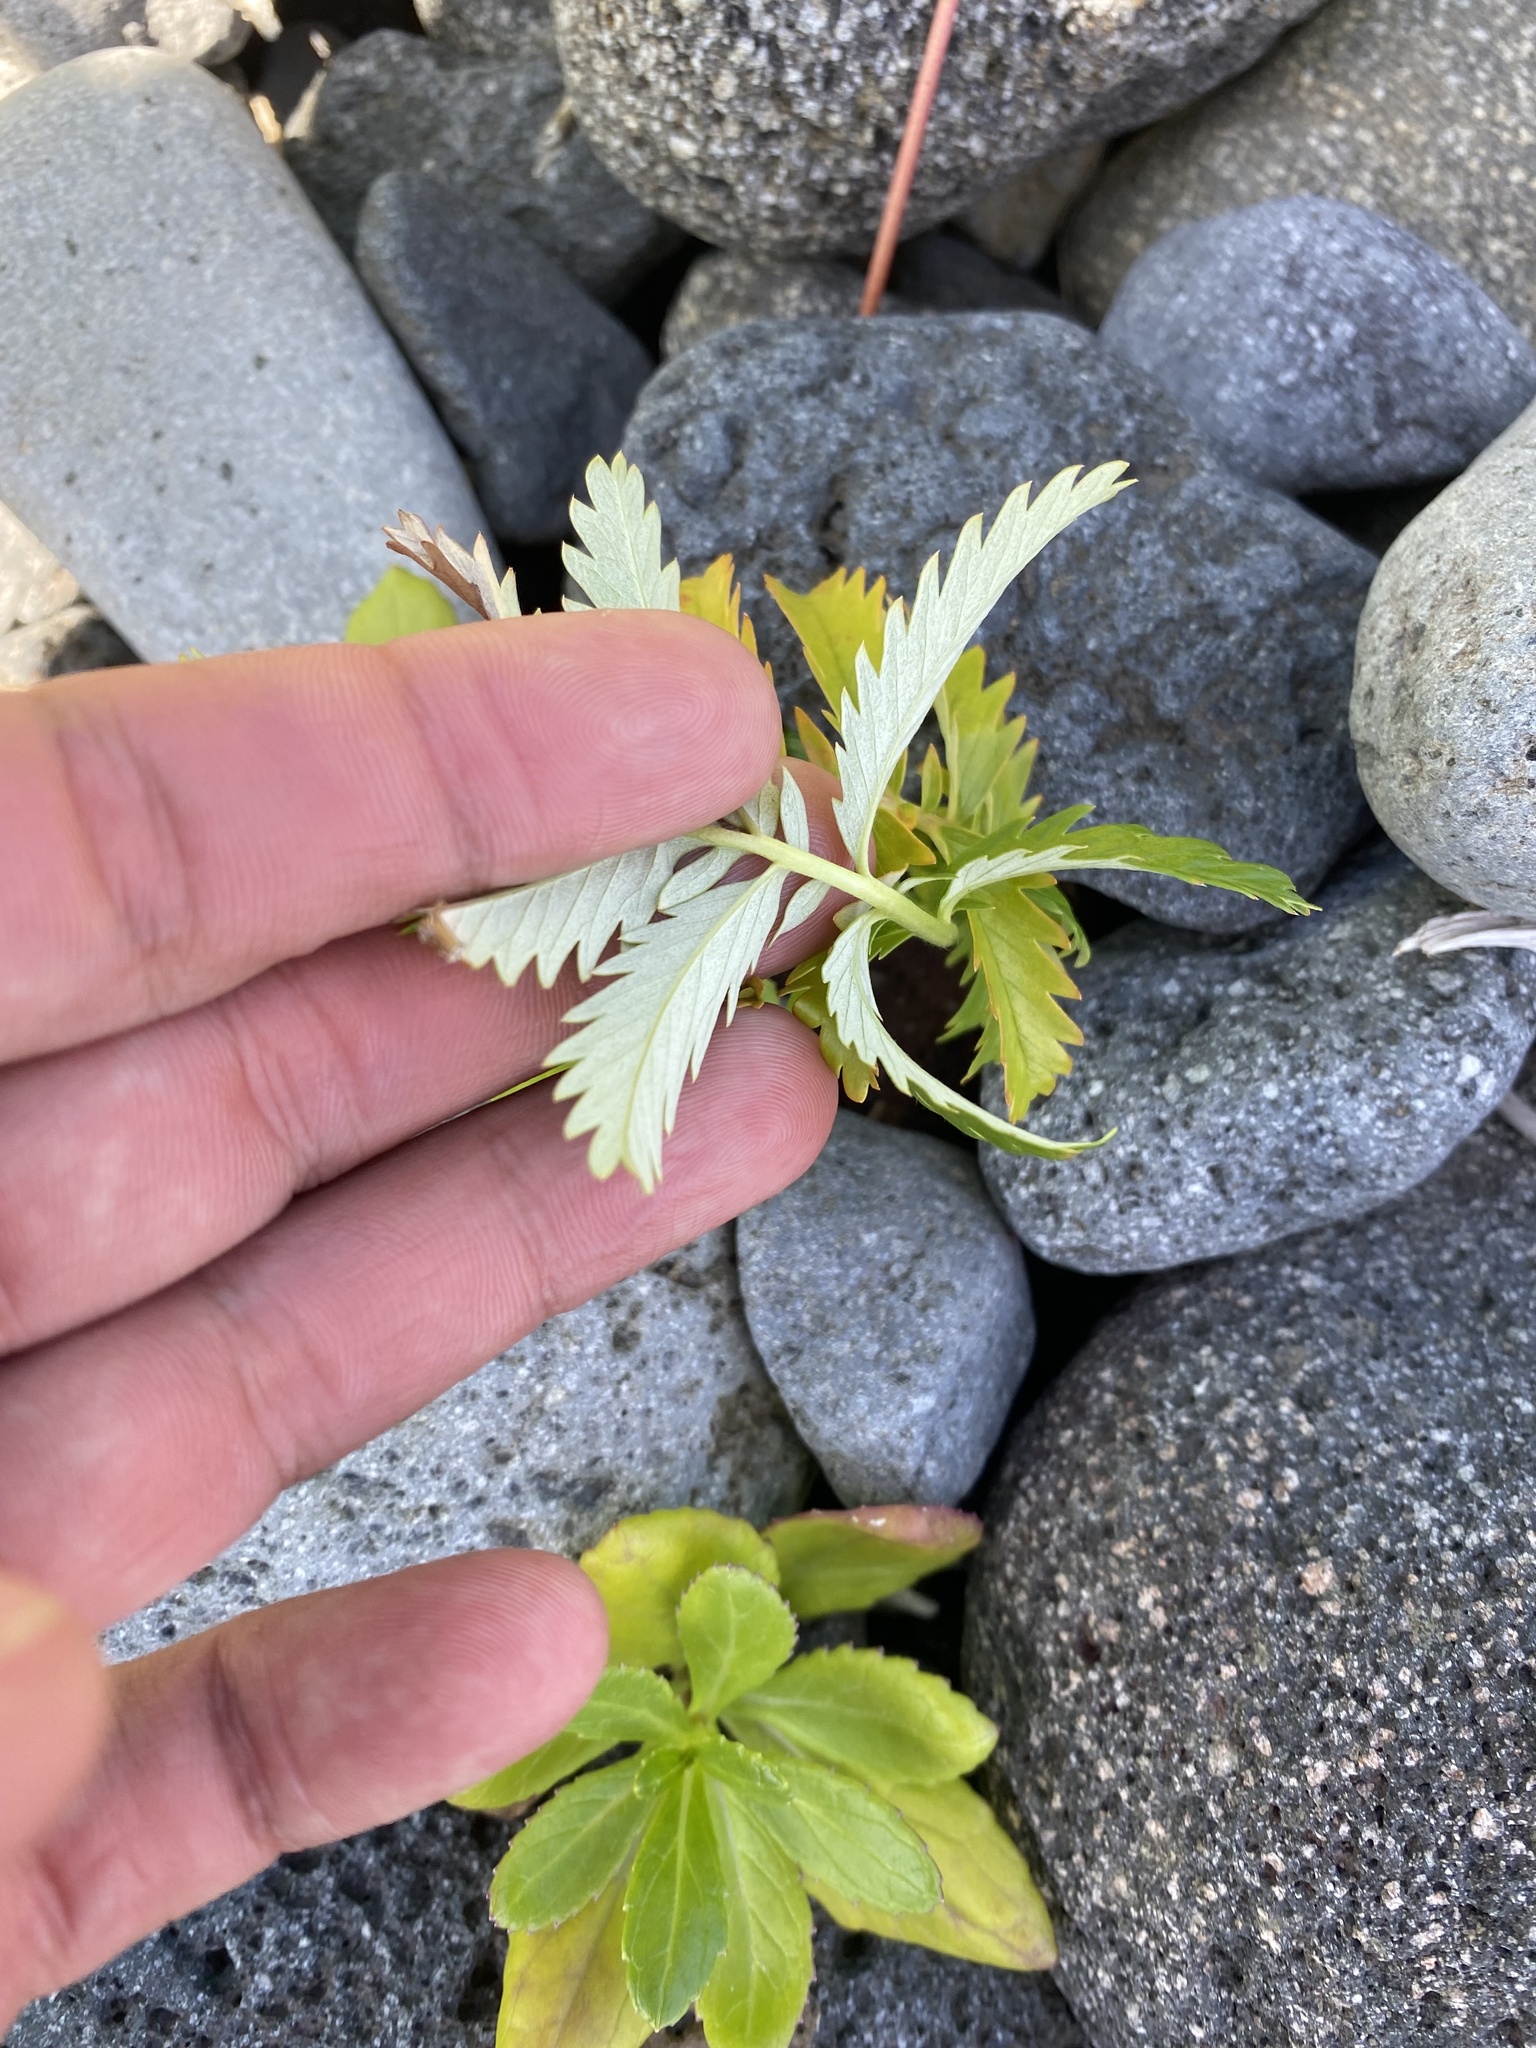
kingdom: Plantae
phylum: Tracheophyta
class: Magnoliopsida
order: Rosales
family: Rosaceae
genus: Argentina
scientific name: Argentina anserina
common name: Common silverweed
